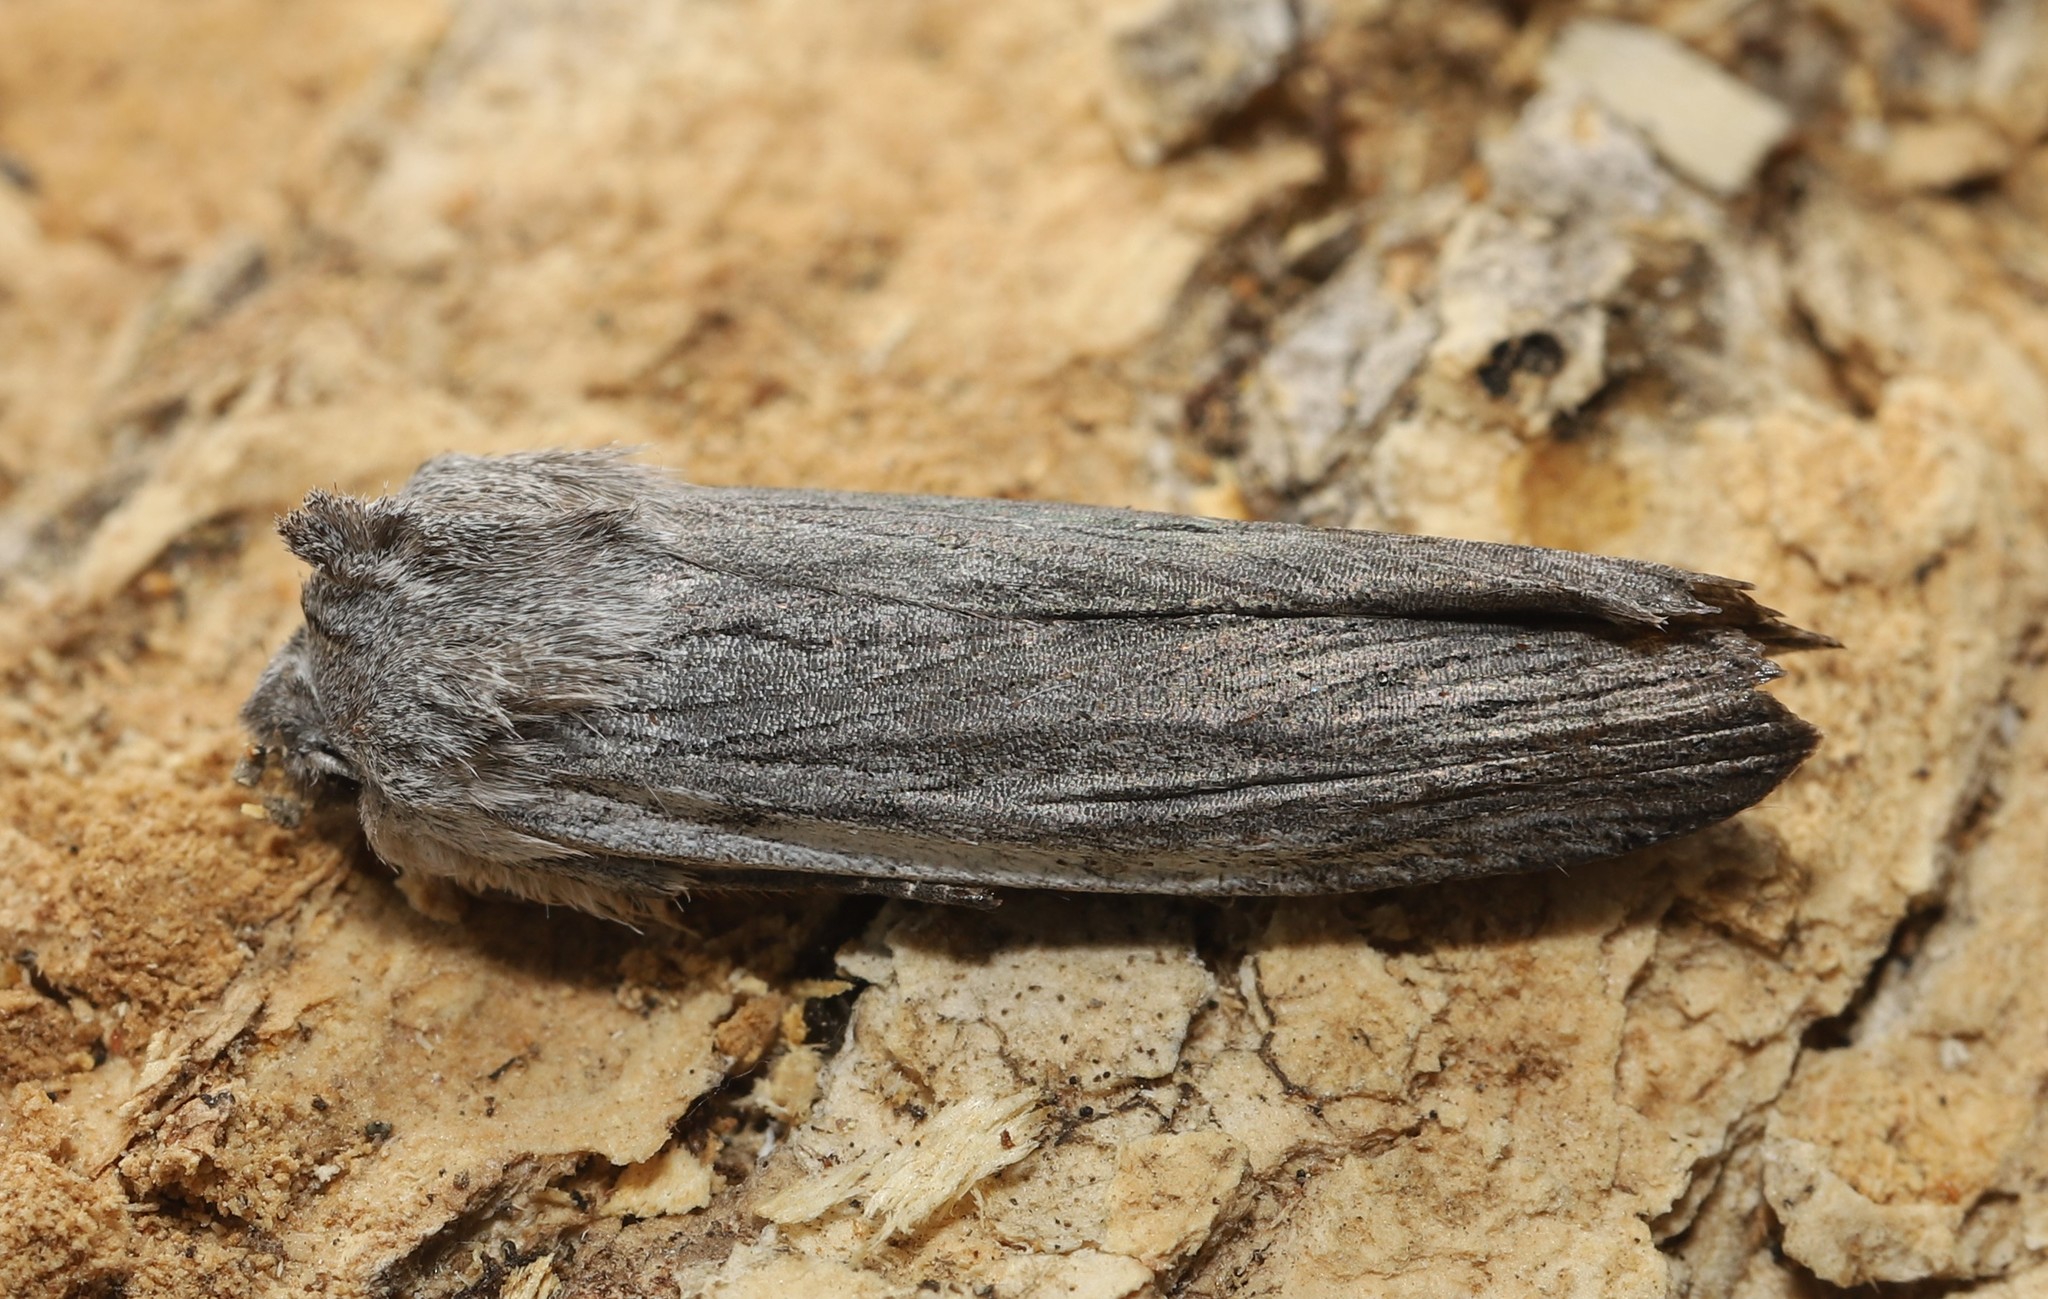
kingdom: Animalia
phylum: Arthropoda
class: Insecta
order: Lepidoptera
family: Noctuidae
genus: Lithophane
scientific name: Lithophane fagina
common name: Hoary pinion moth
